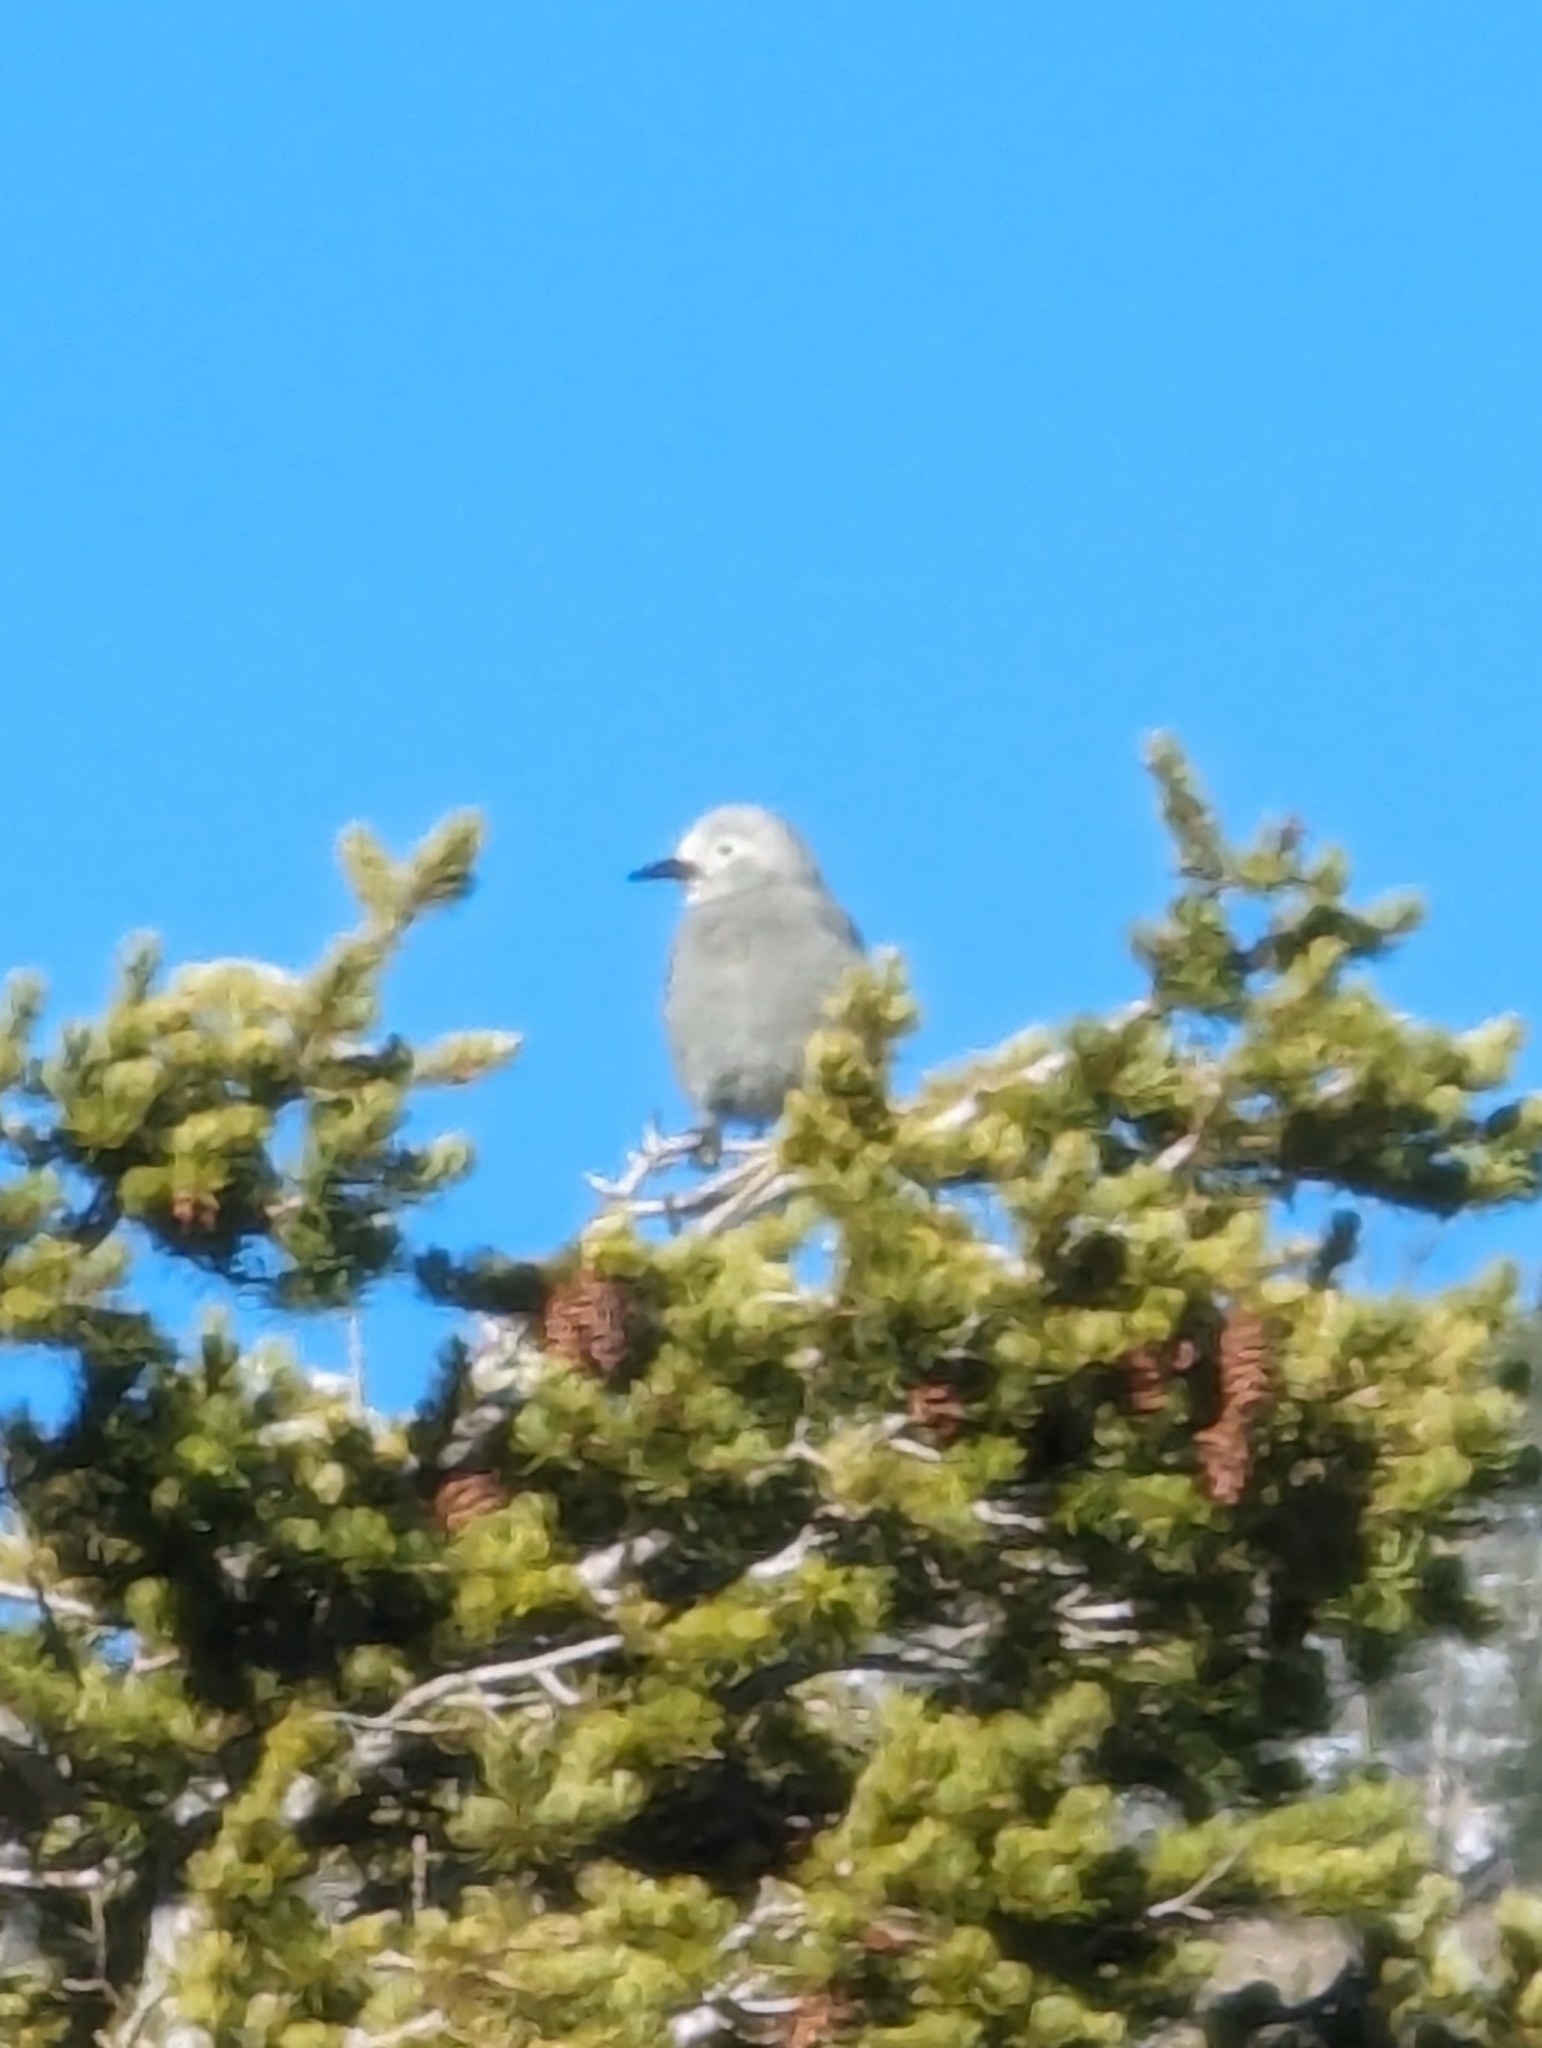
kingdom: Animalia
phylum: Chordata
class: Aves
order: Passeriformes
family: Corvidae
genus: Nucifraga
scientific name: Nucifraga columbiana
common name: Clark's nutcracker
